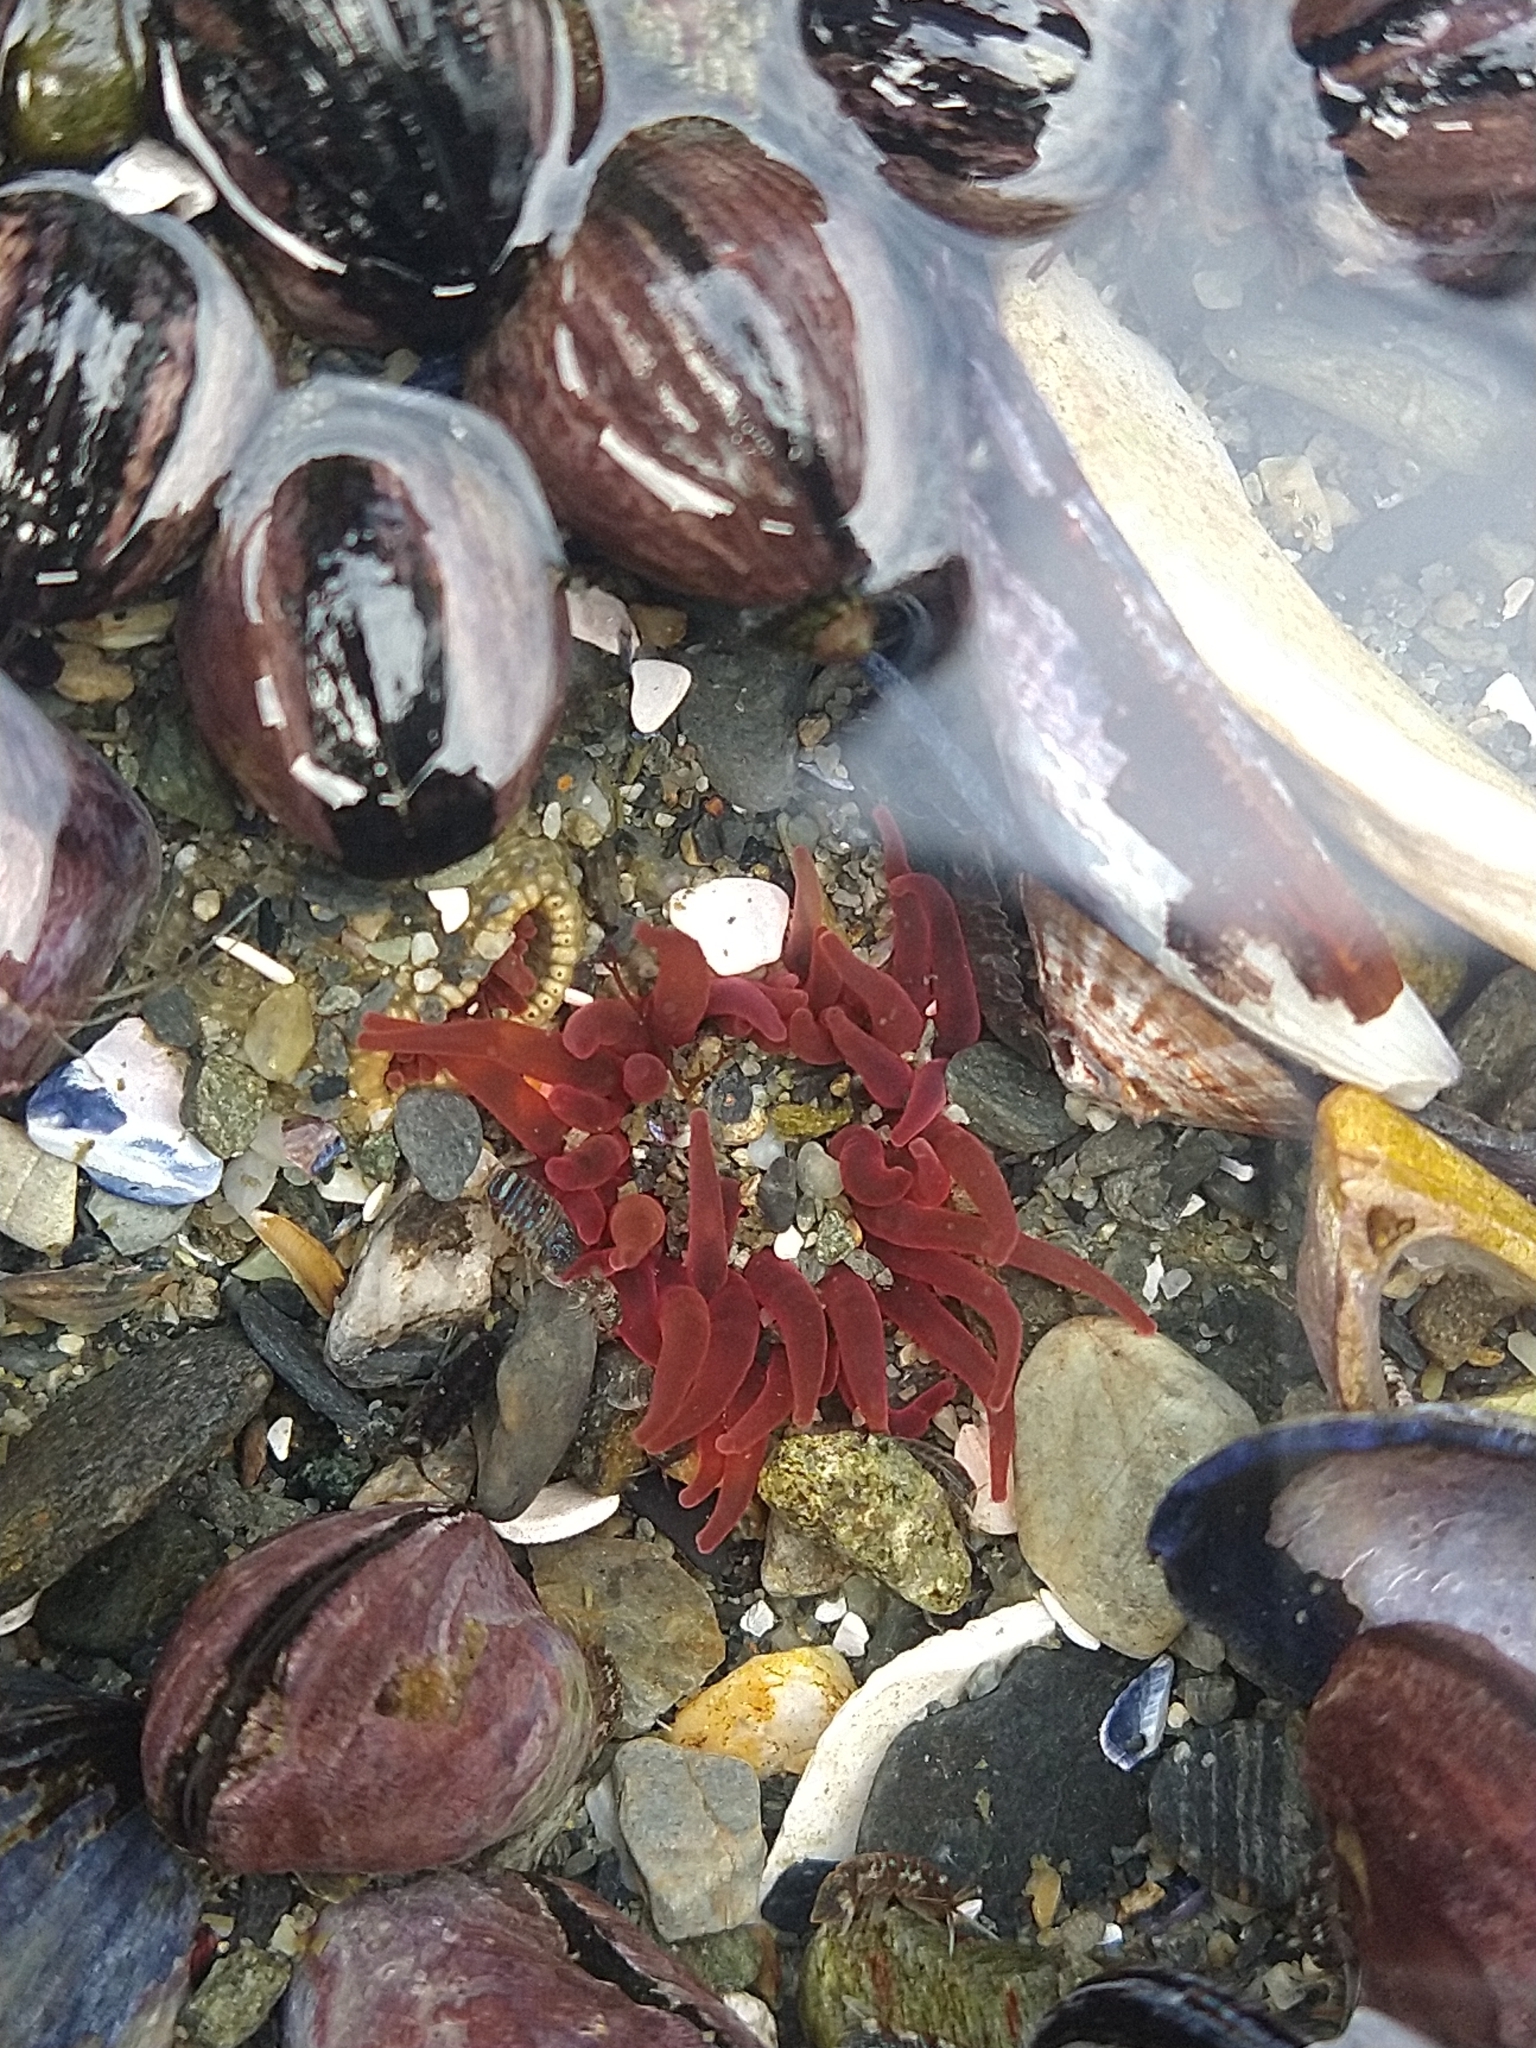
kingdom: Animalia
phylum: Cnidaria
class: Anthozoa
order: Actiniaria
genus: Paractis
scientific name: Paractis impatiens
